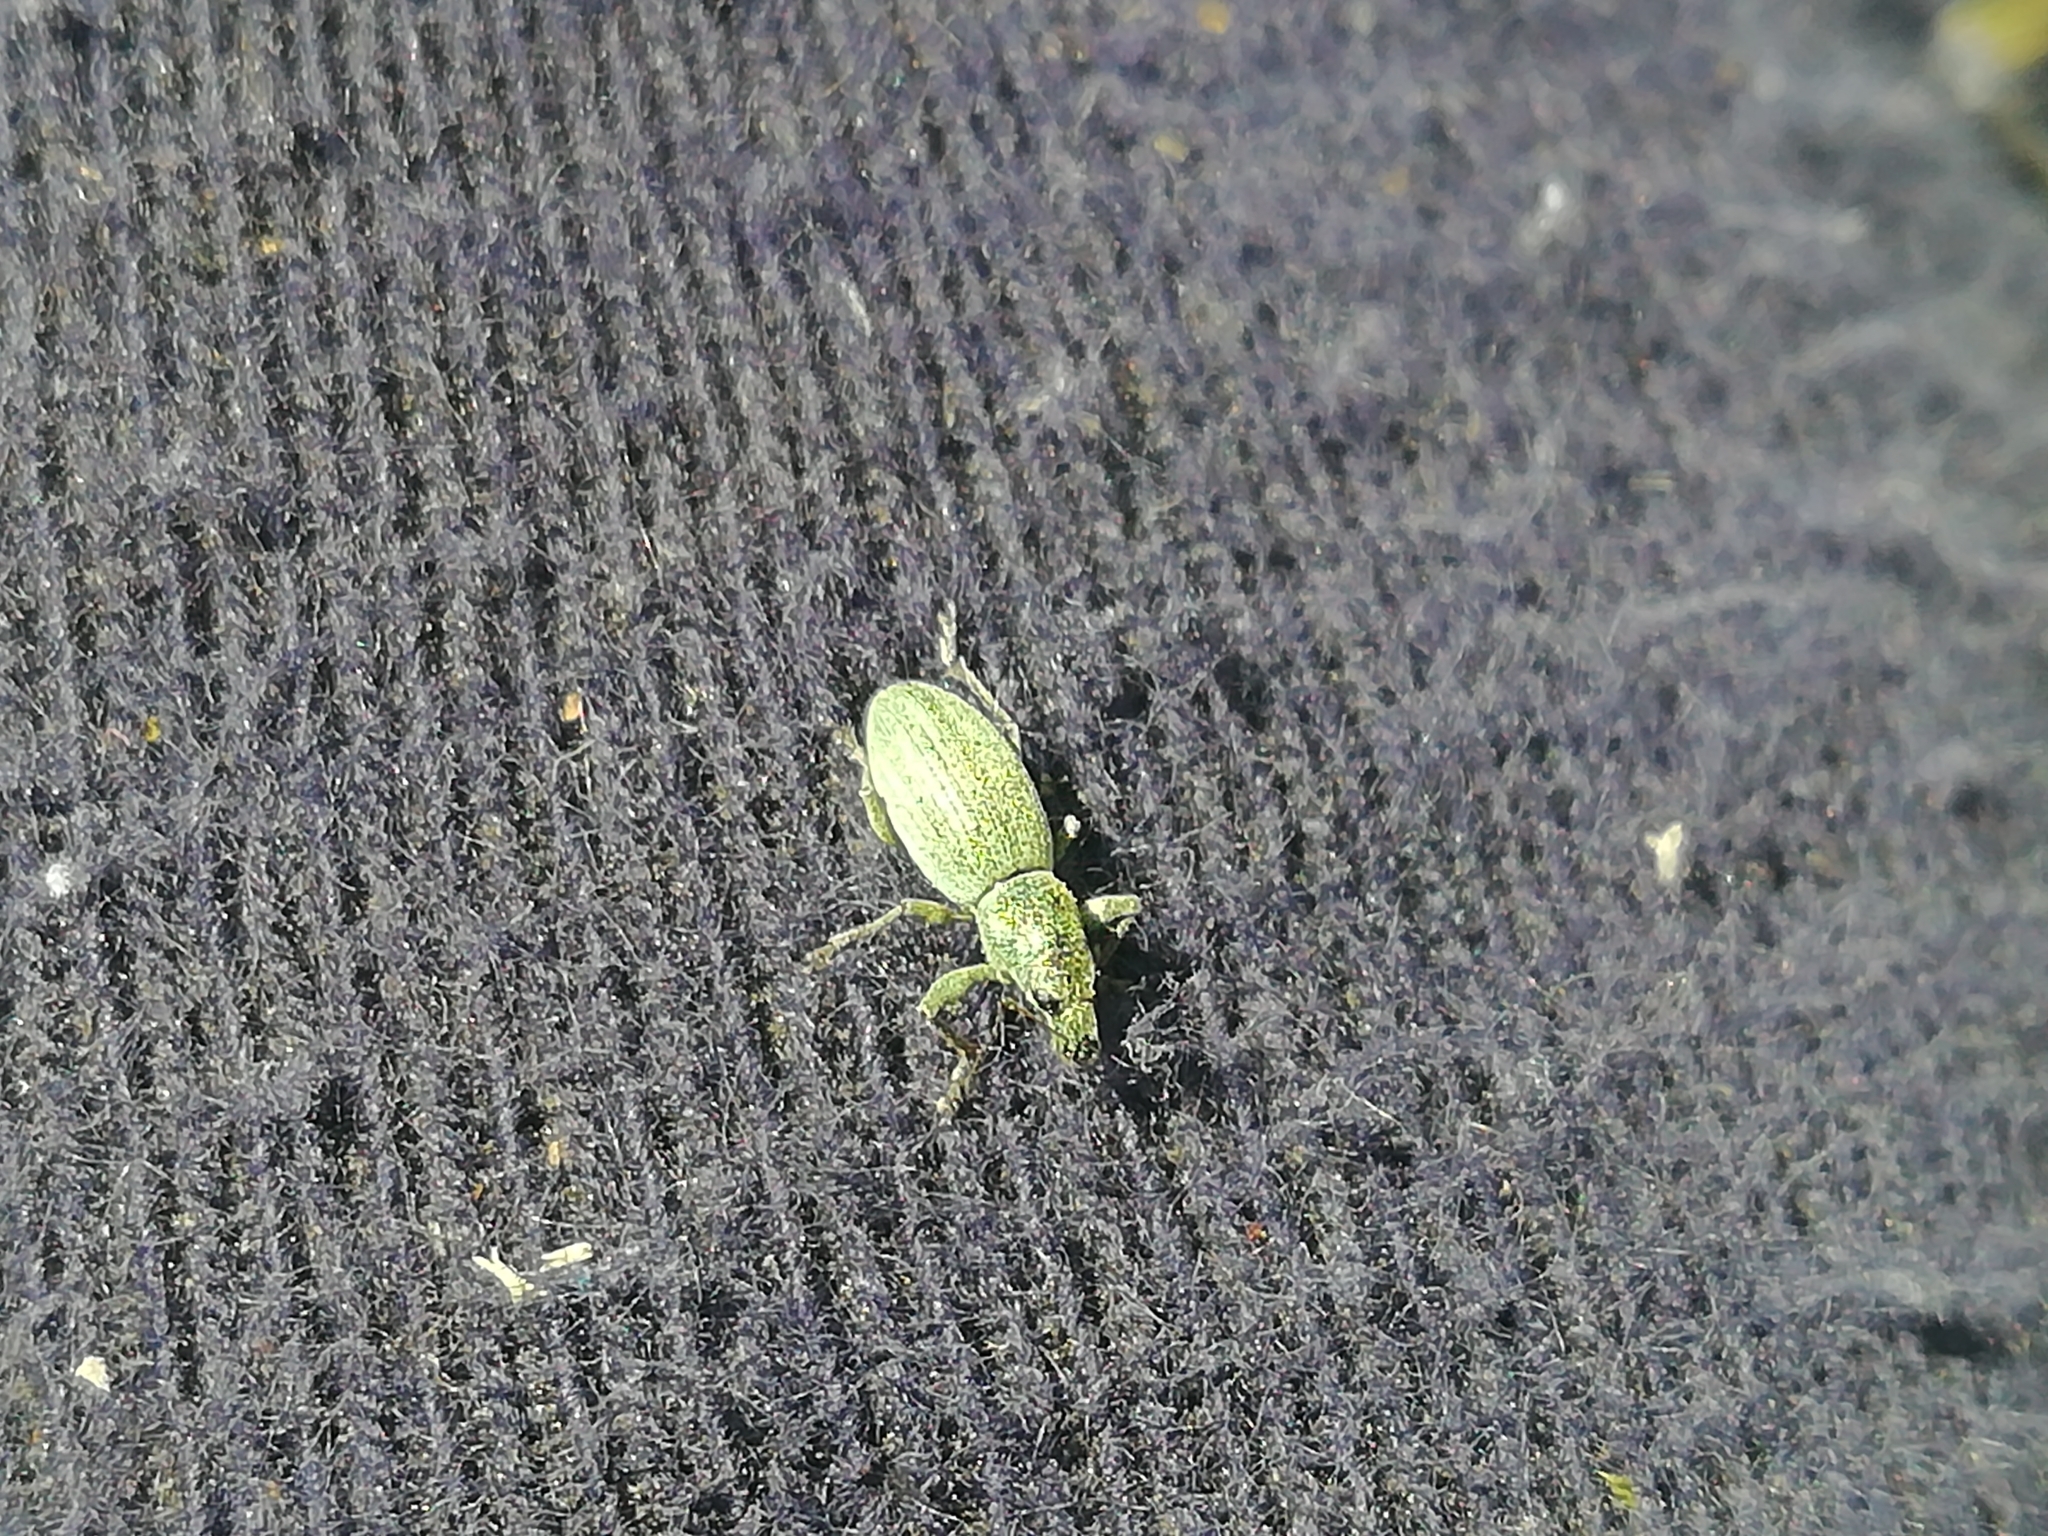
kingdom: Animalia
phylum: Arthropoda
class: Insecta
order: Coleoptera
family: Curculionidae
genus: Eusomus
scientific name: Eusomus ovulum
